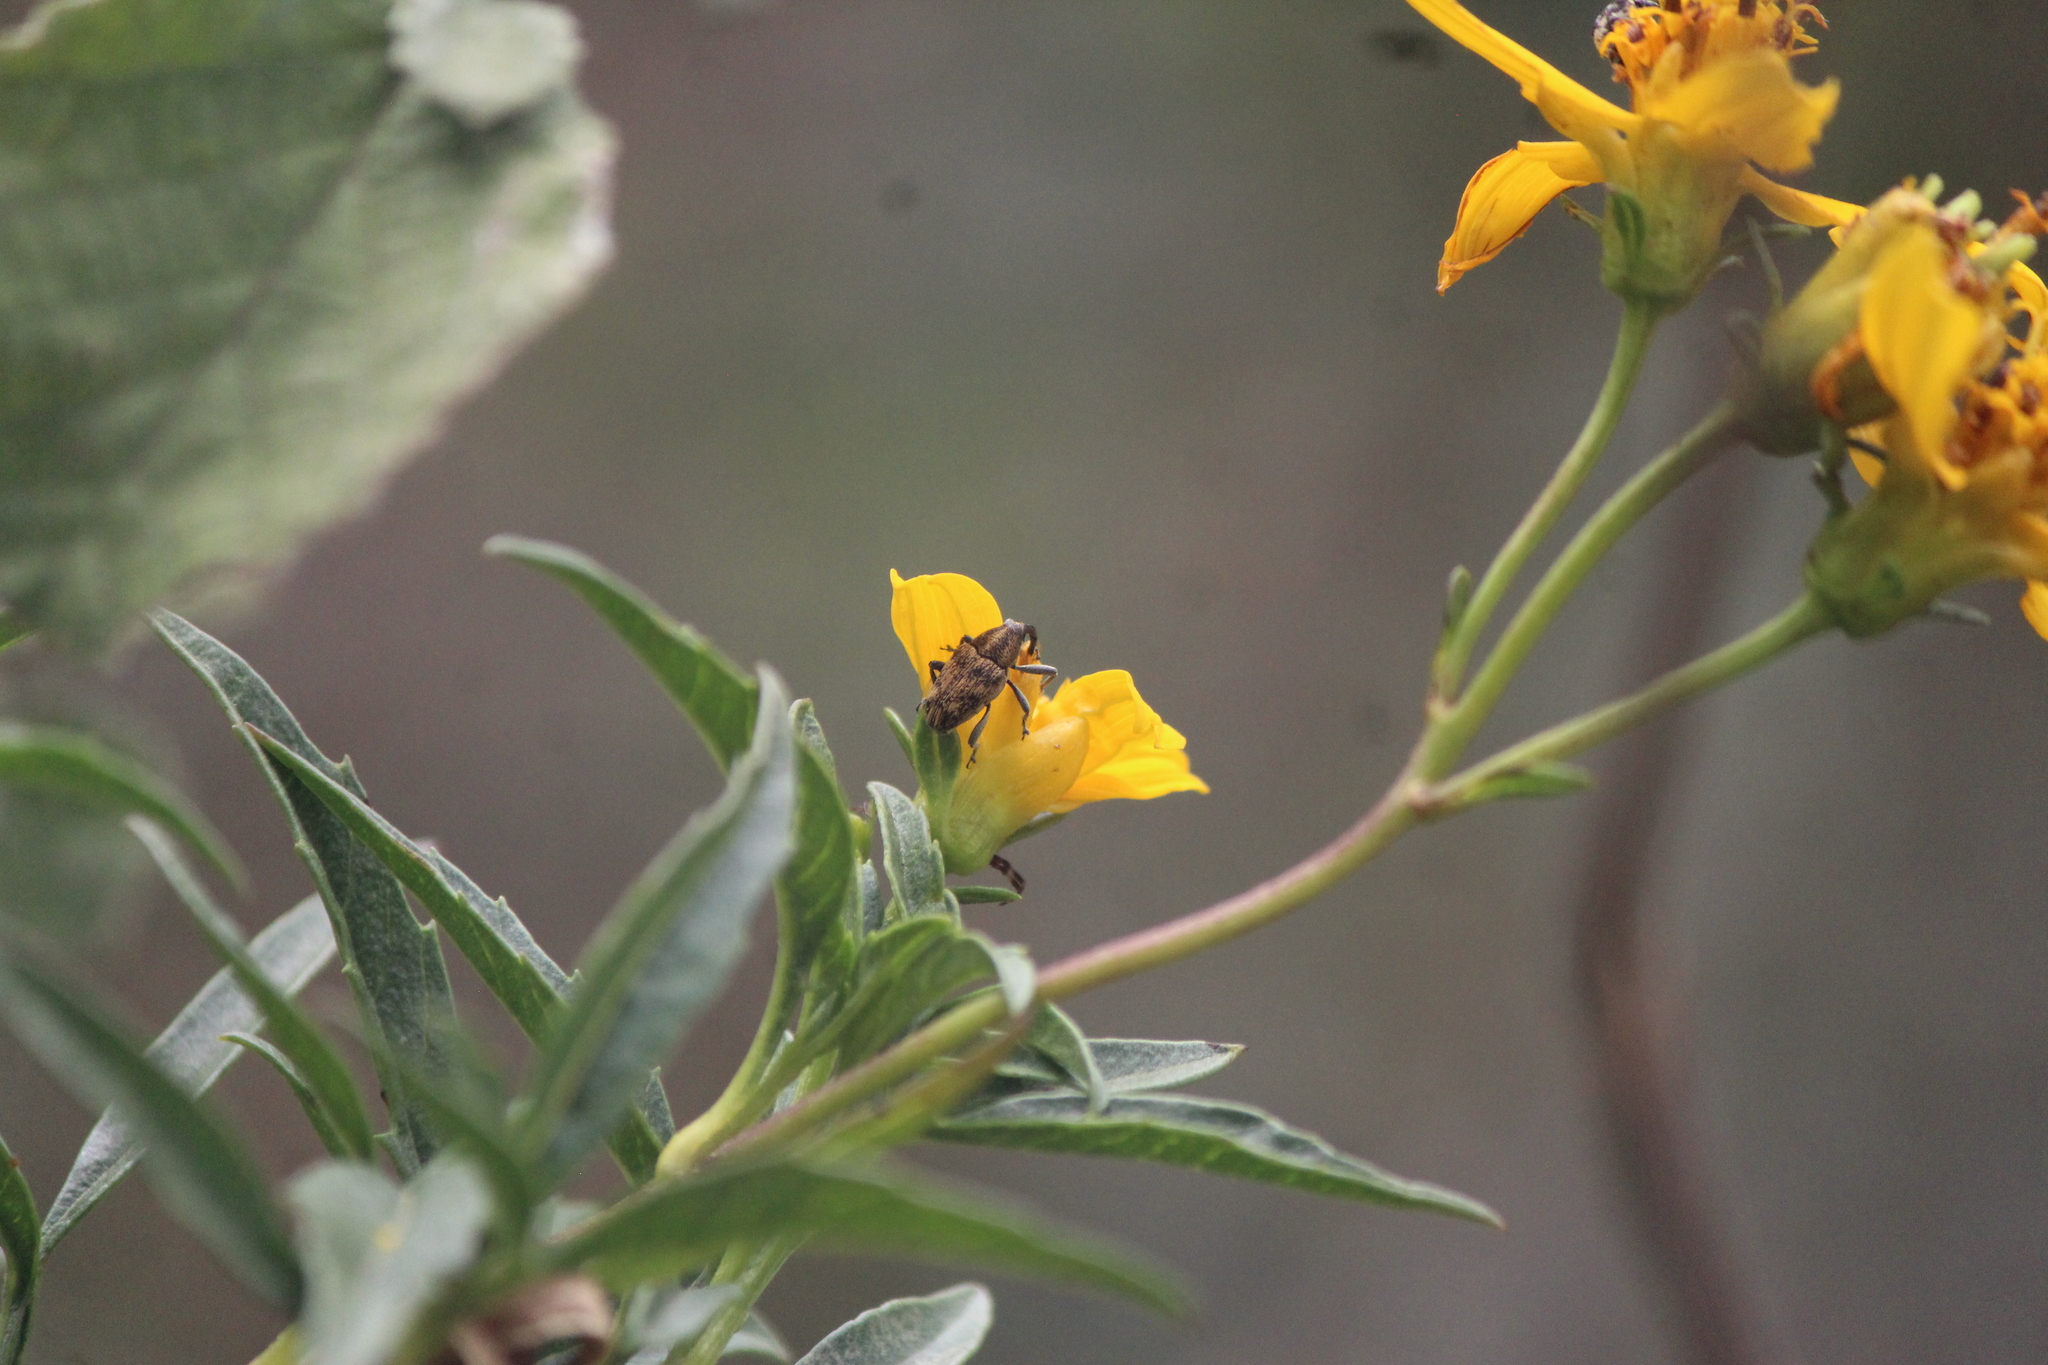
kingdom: Animalia
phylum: Arthropoda
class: Insecta
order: Coleoptera
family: Curculionidae
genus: Pseudocentrinus
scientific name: Pseudocentrinus ochraceus
